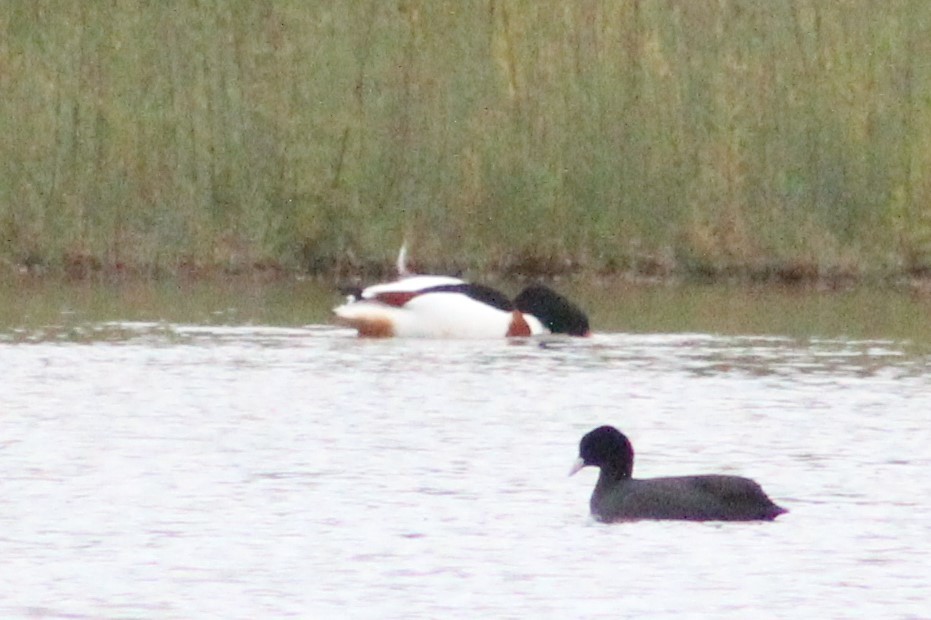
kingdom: Animalia
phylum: Chordata
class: Aves
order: Anseriformes
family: Anatidae
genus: Tadorna
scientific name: Tadorna tadorna
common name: Common shelduck
